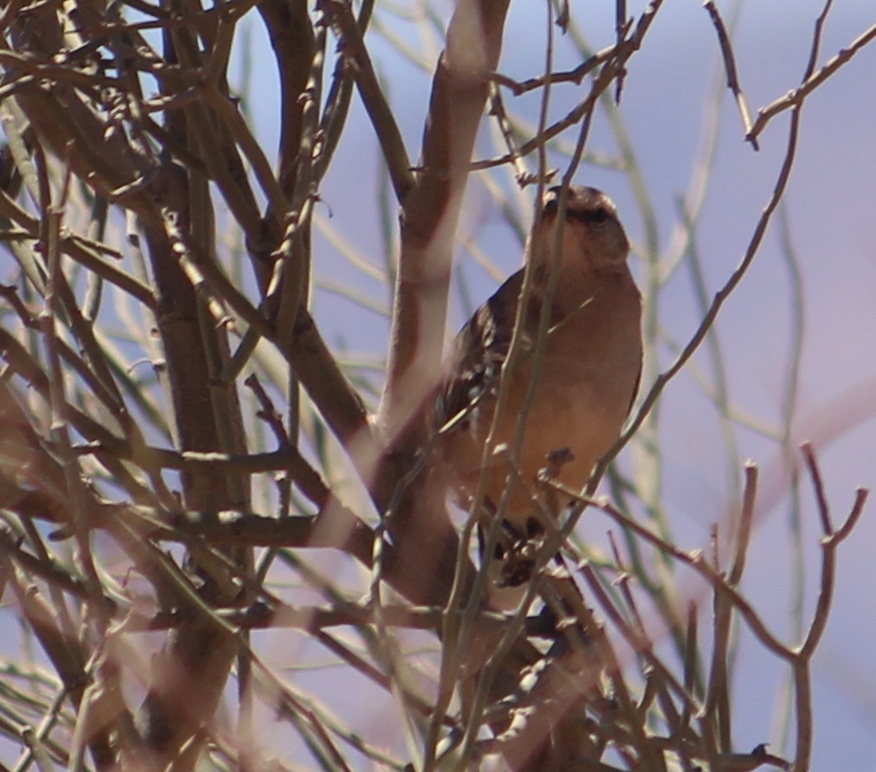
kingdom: Animalia
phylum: Chordata
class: Aves
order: Passeriformes
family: Mimidae
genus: Mimus
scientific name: Mimus patagonicus
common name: Patagonian mockingbird
